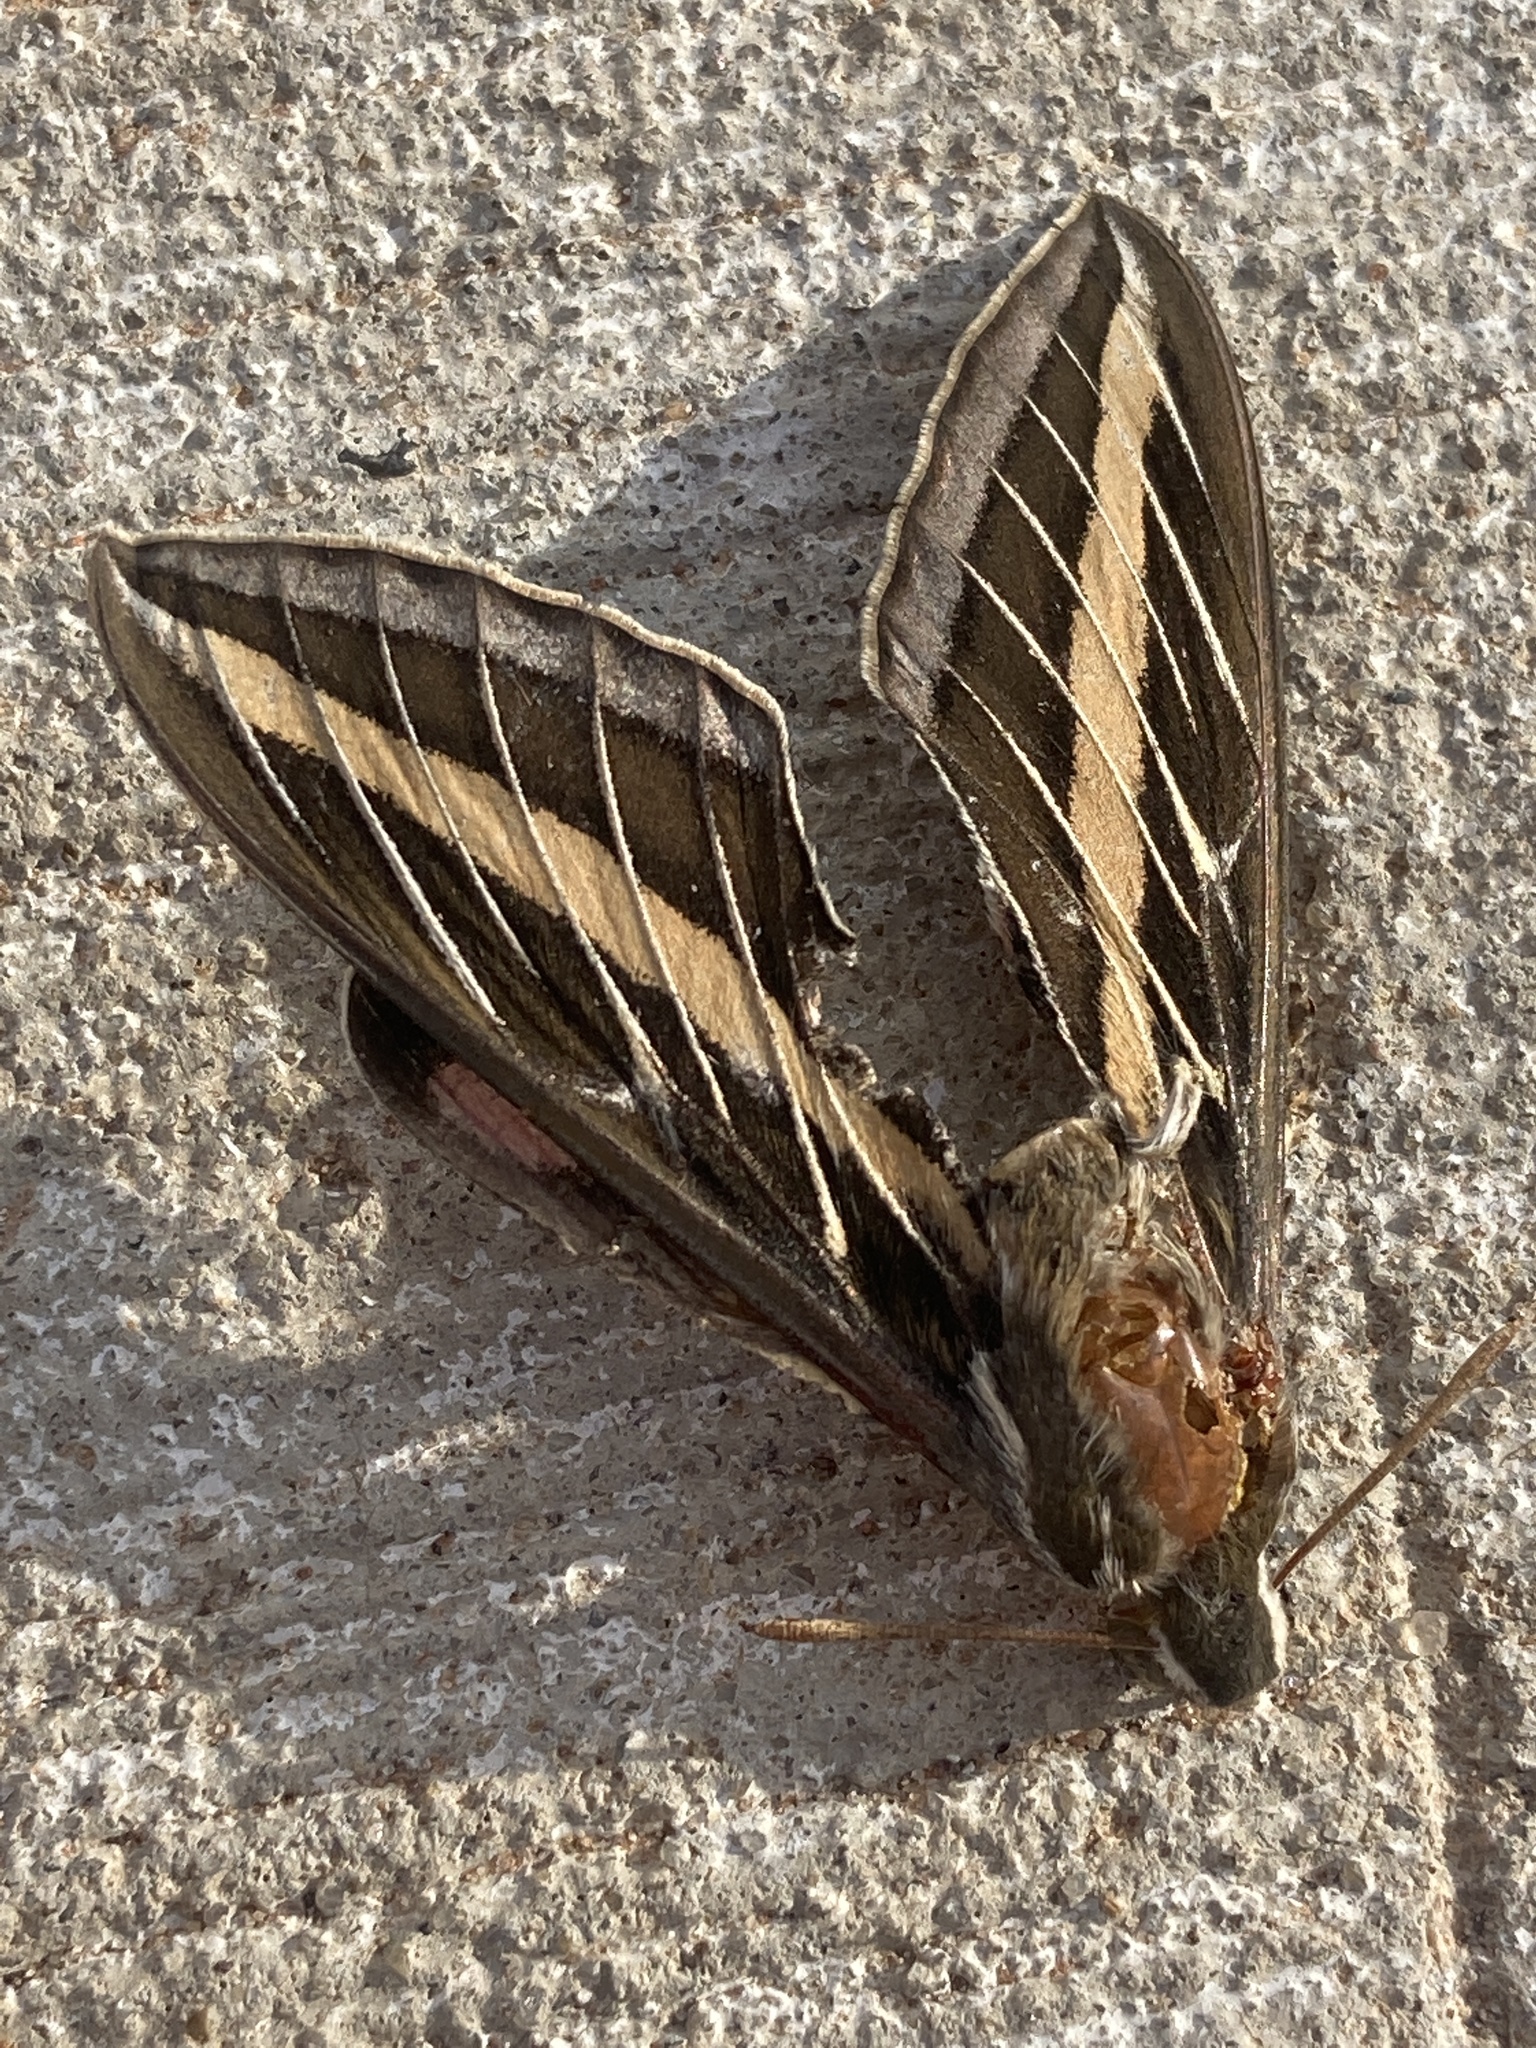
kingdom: Animalia
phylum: Arthropoda
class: Insecta
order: Lepidoptera
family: Sphingidae
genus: Hyles
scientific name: Hyles lineata
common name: White-lined sphinx
